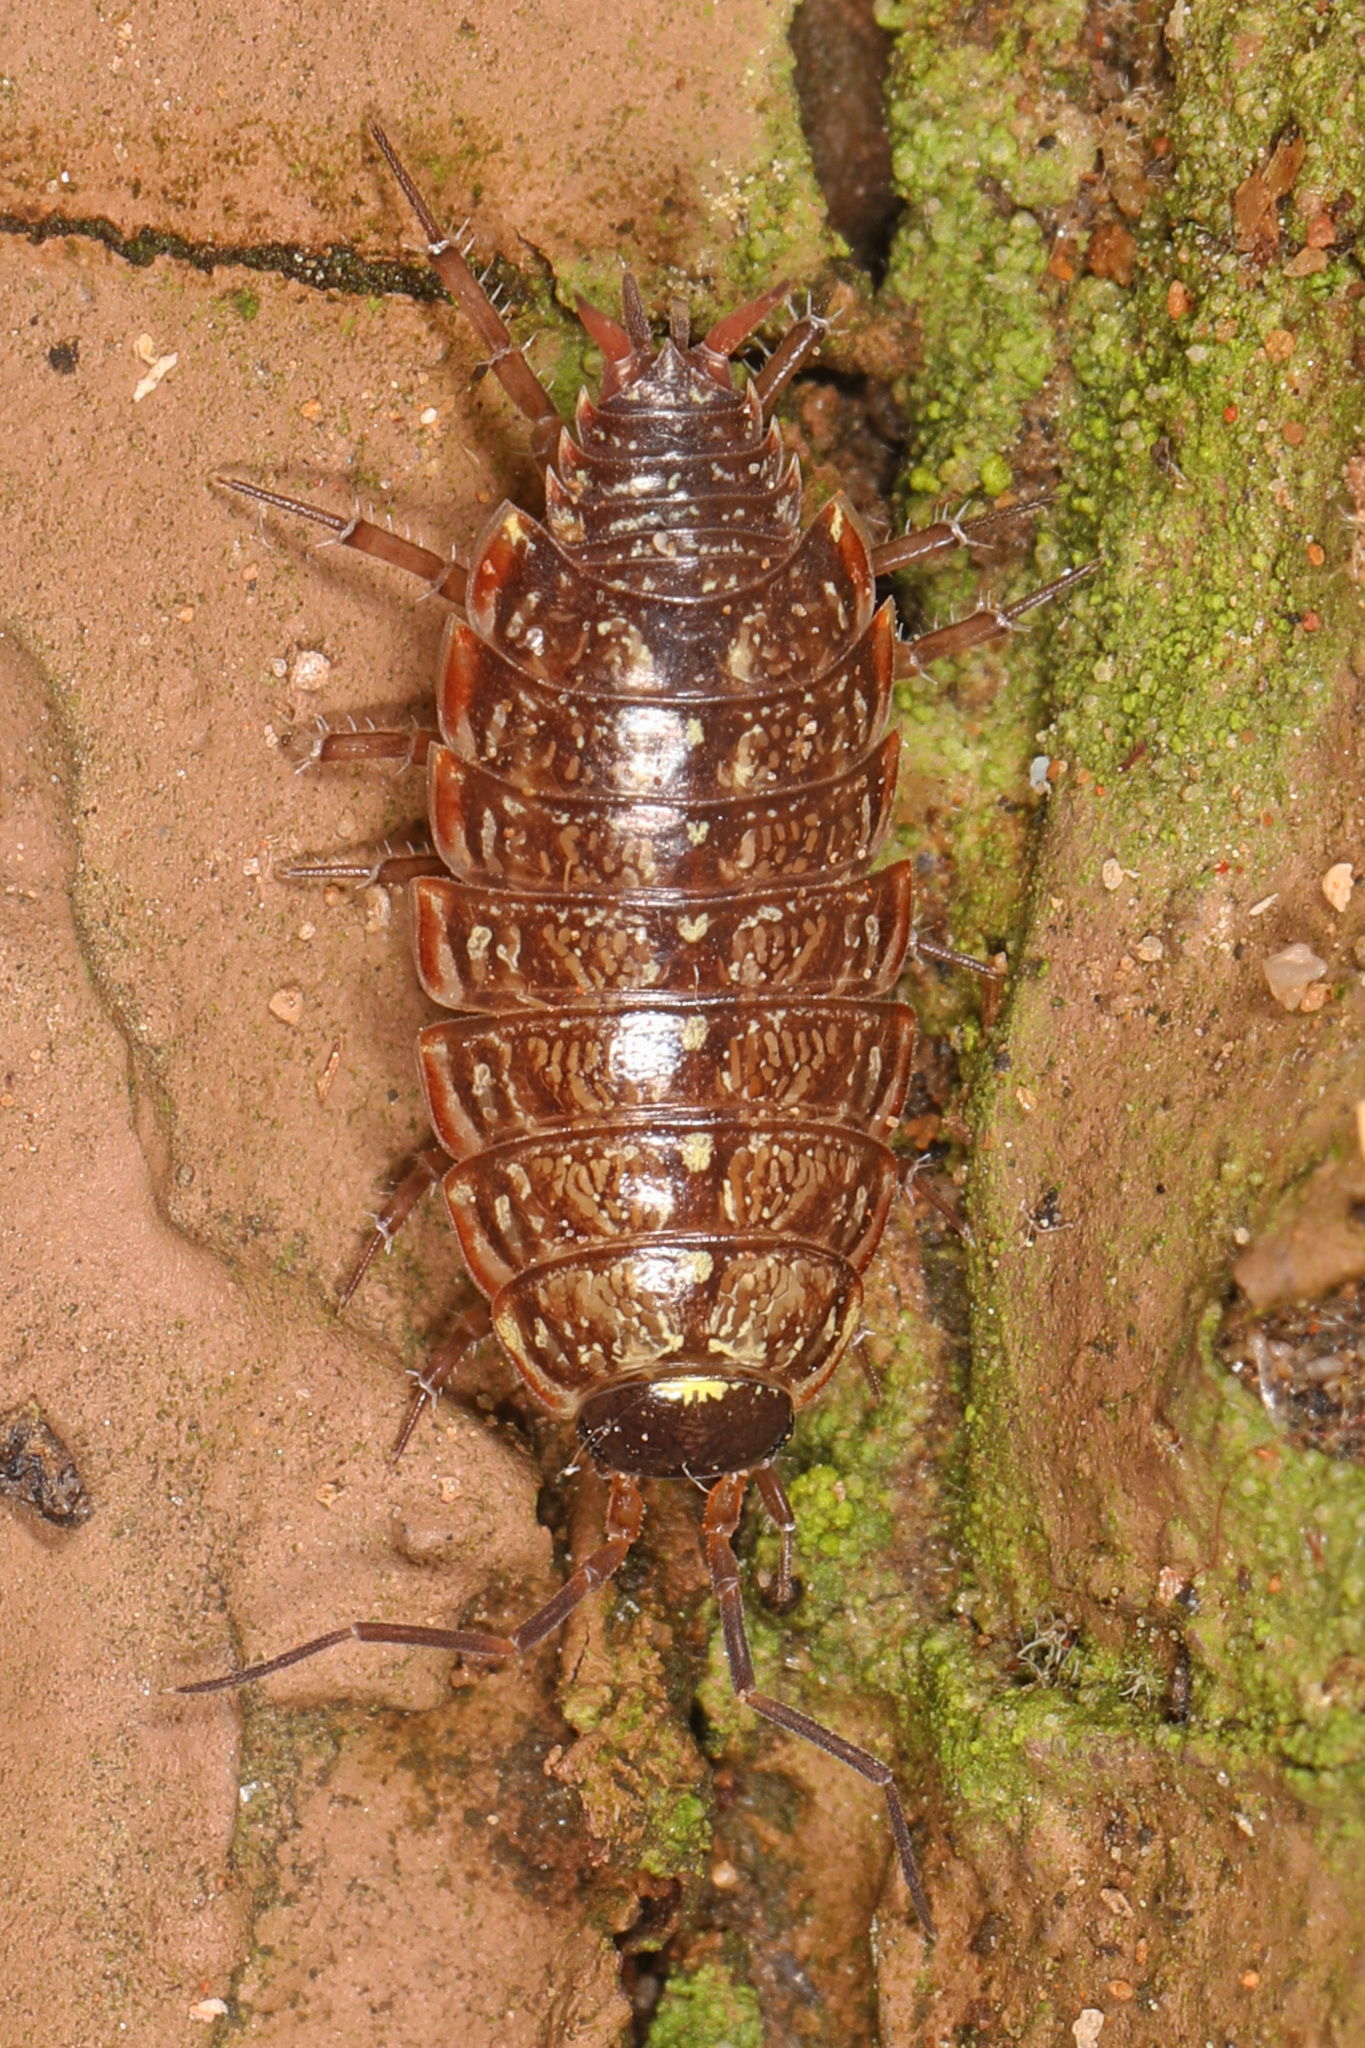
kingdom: Animalia
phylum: Arthropoda
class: Malacostraca
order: Isopoda
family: Philosciidae
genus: Philoscia
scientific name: Philoscia muscorum
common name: Common striped woodlouse
